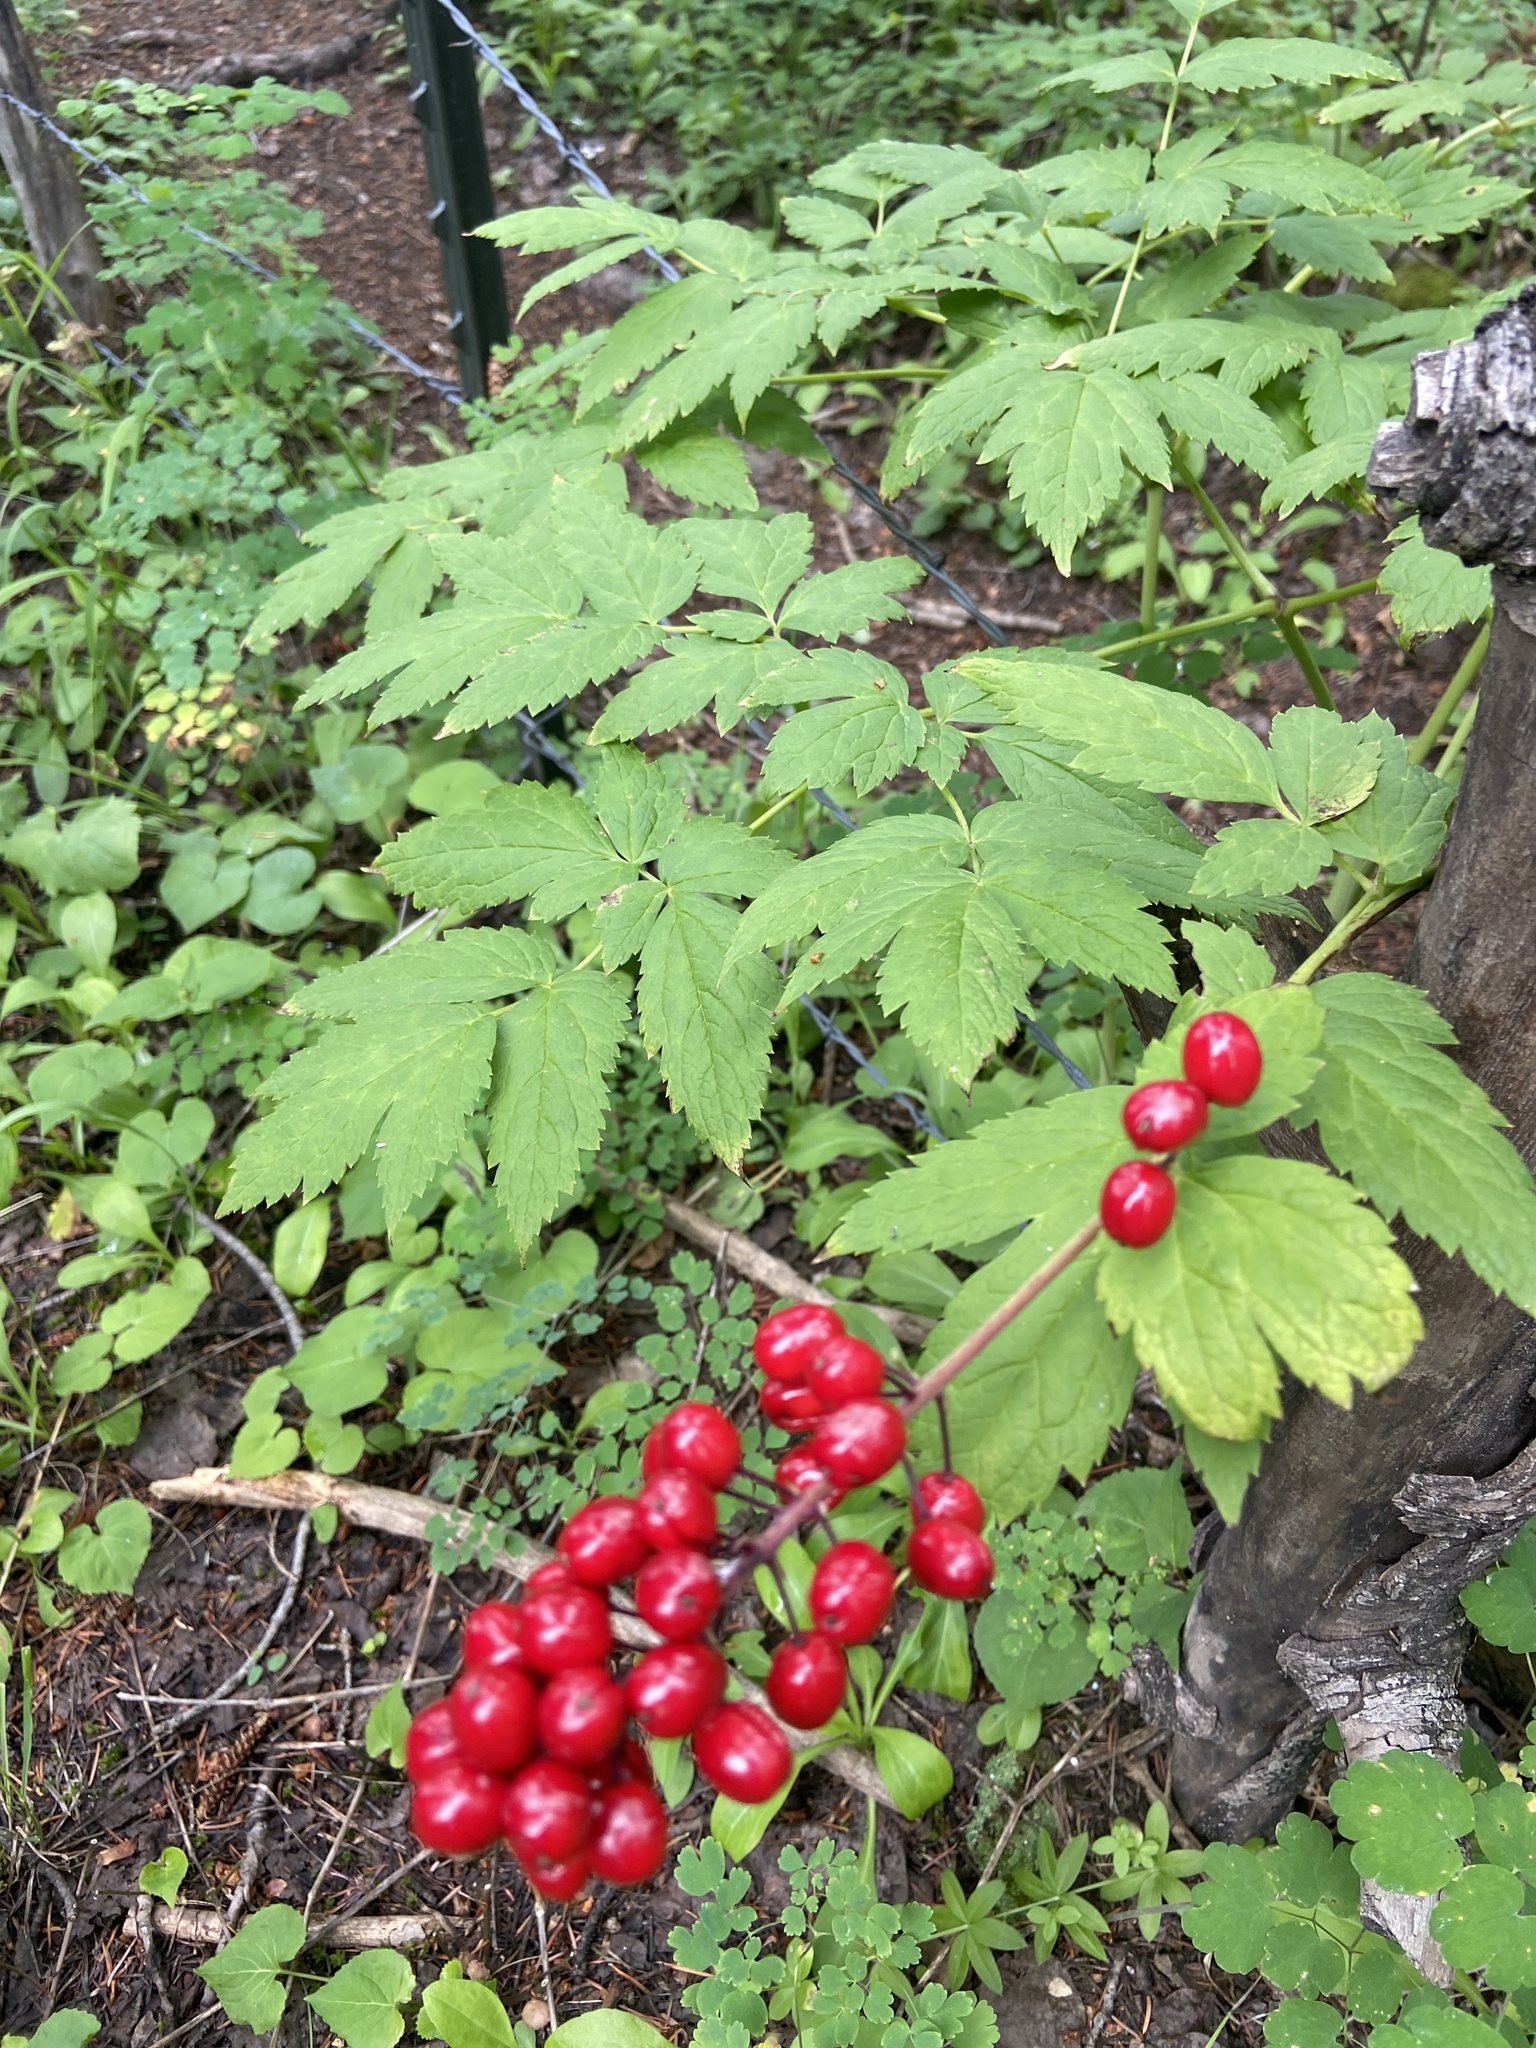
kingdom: Plantae
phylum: Tracheophyta
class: Magnoliopsida
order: Ranunculales
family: Ranunculaceae
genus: Actaea
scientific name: Actaea rubra
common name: Red baneberry
